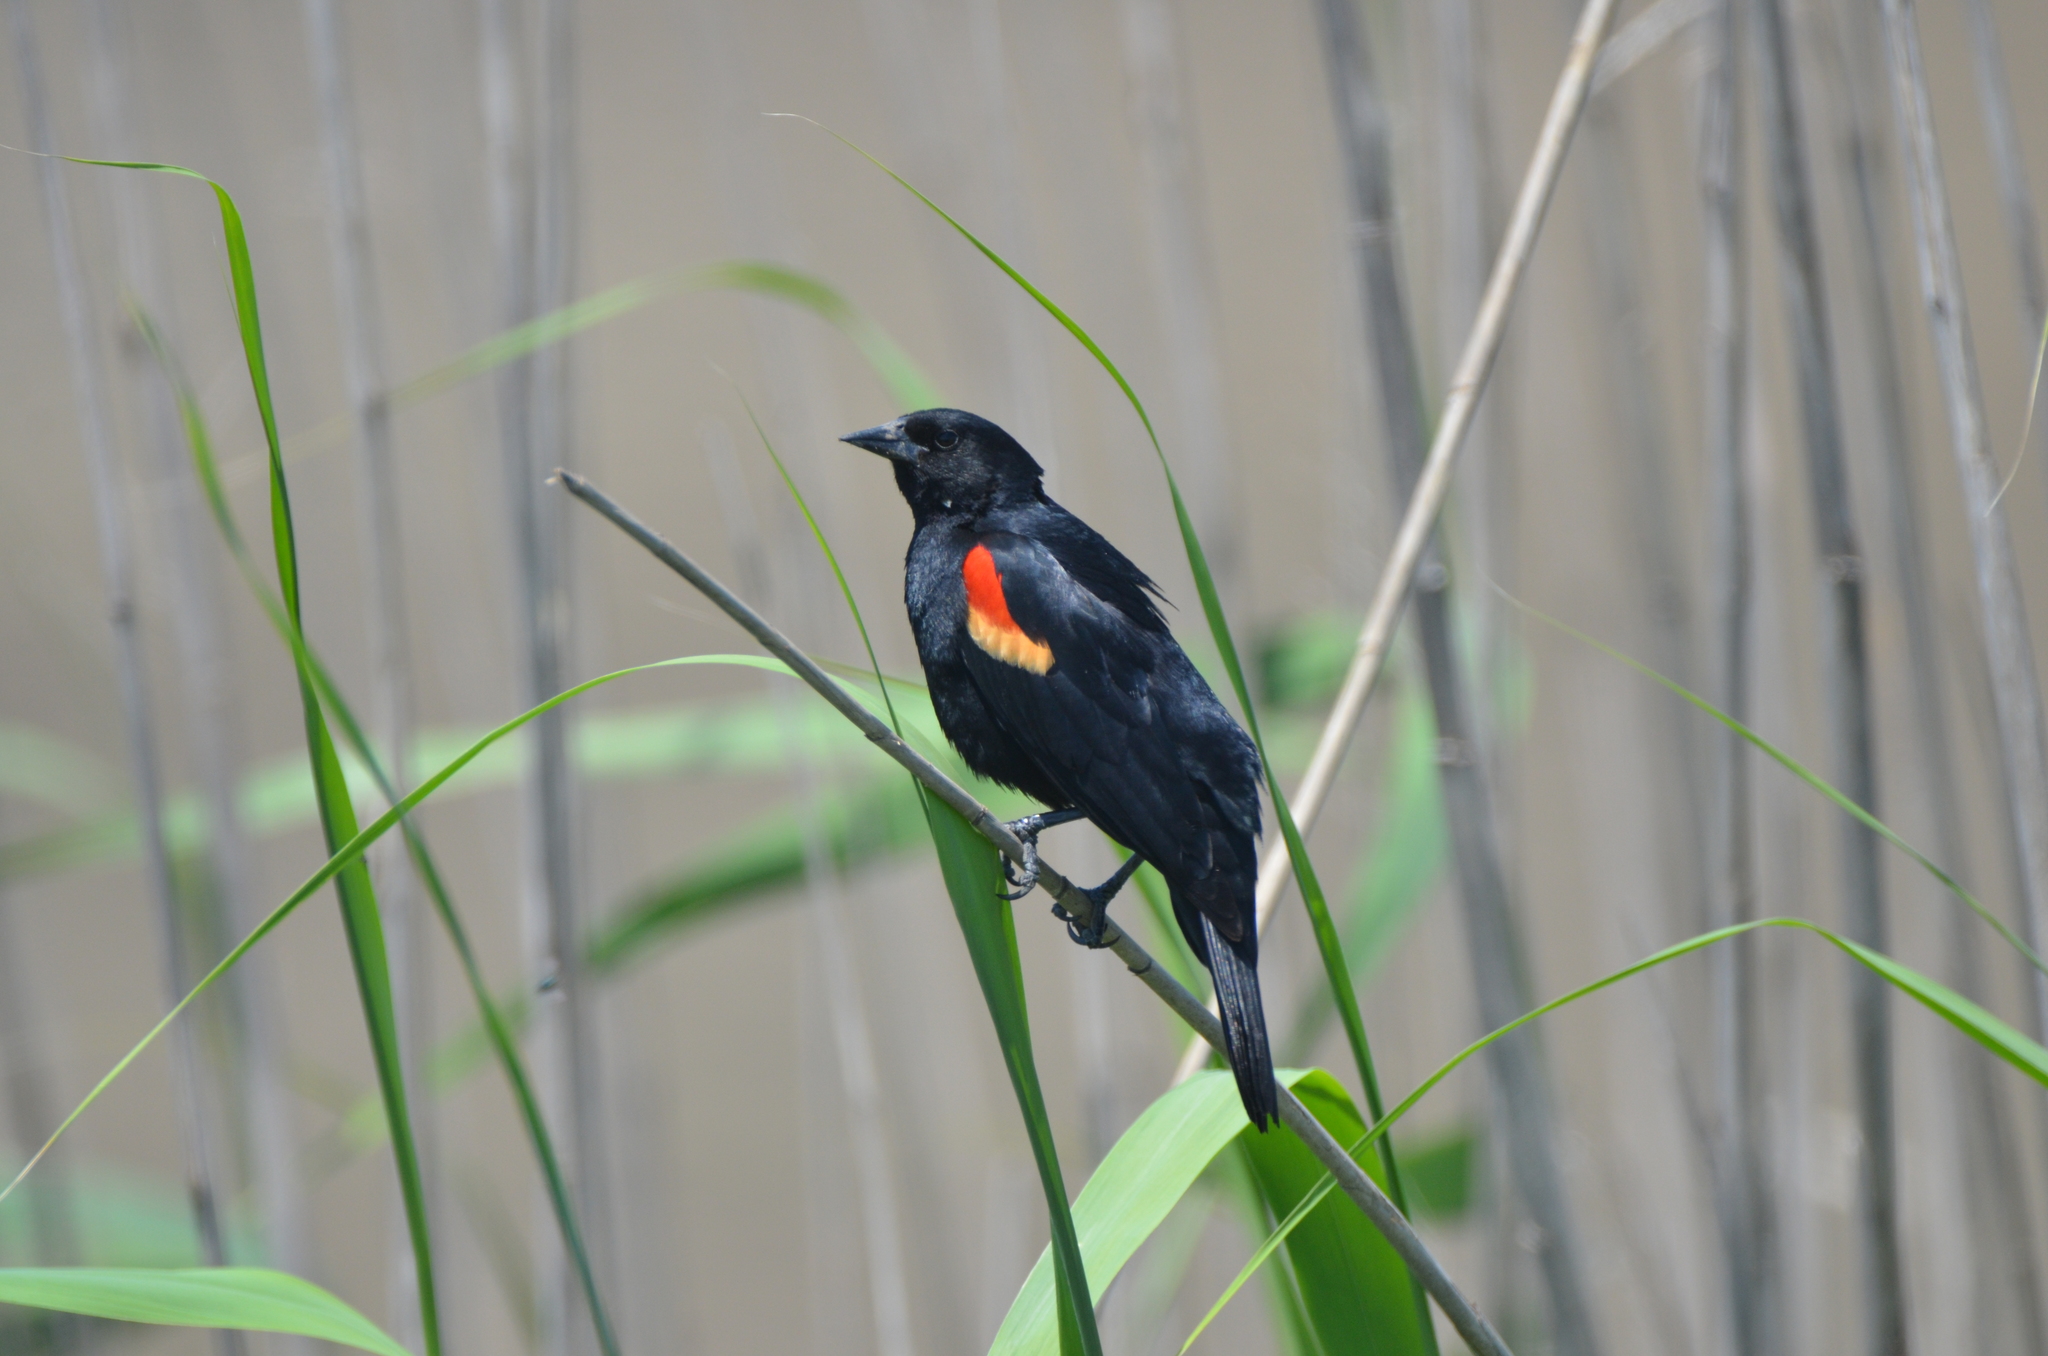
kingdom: Animalia
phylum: Chordata
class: Aves
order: Passeriformes
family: Icteridae
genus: Agelaius
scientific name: Agelaius phoeniceus
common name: Red-winged blackbird
